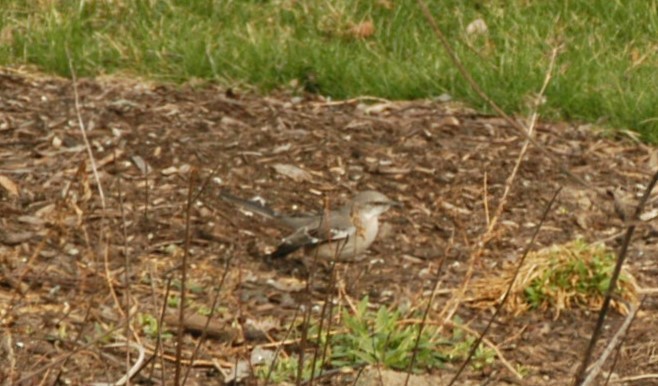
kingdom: Animalia
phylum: Chordata
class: Aves
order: Passeriformes
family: Mimidae
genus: Mimus
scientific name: Mimus polyglottos
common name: Northern mockingbird
